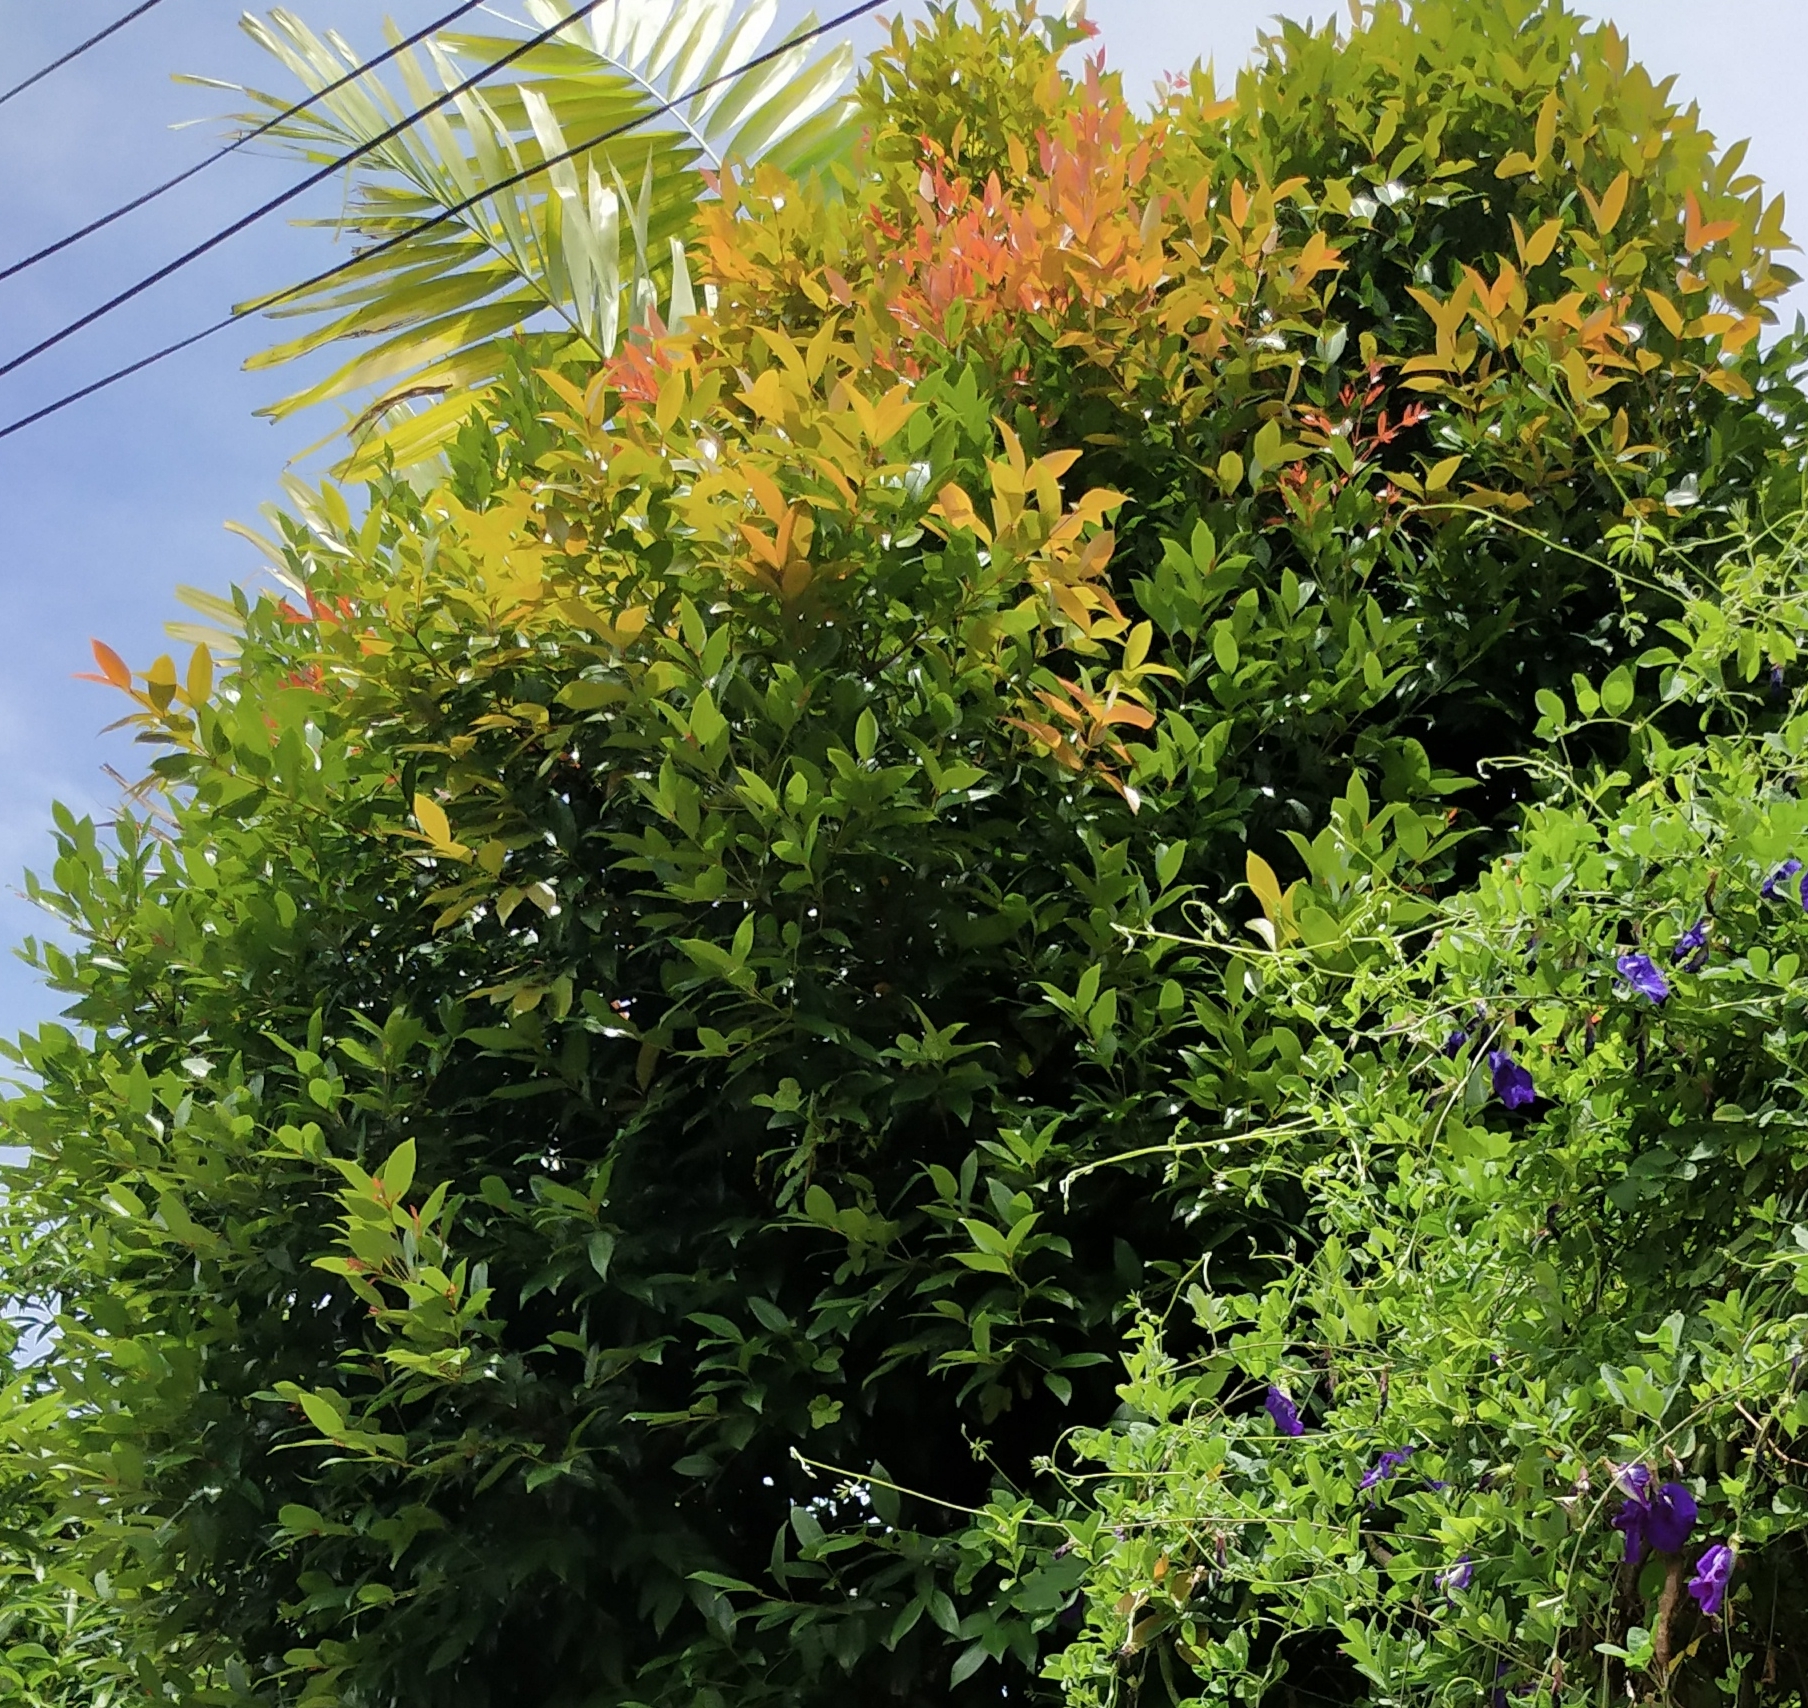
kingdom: Plantae
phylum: Tracheophyta
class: Magnoliopsida
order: Myrtales
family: Myrtaceae
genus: Syzygium
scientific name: Syzygium myrtifolium
